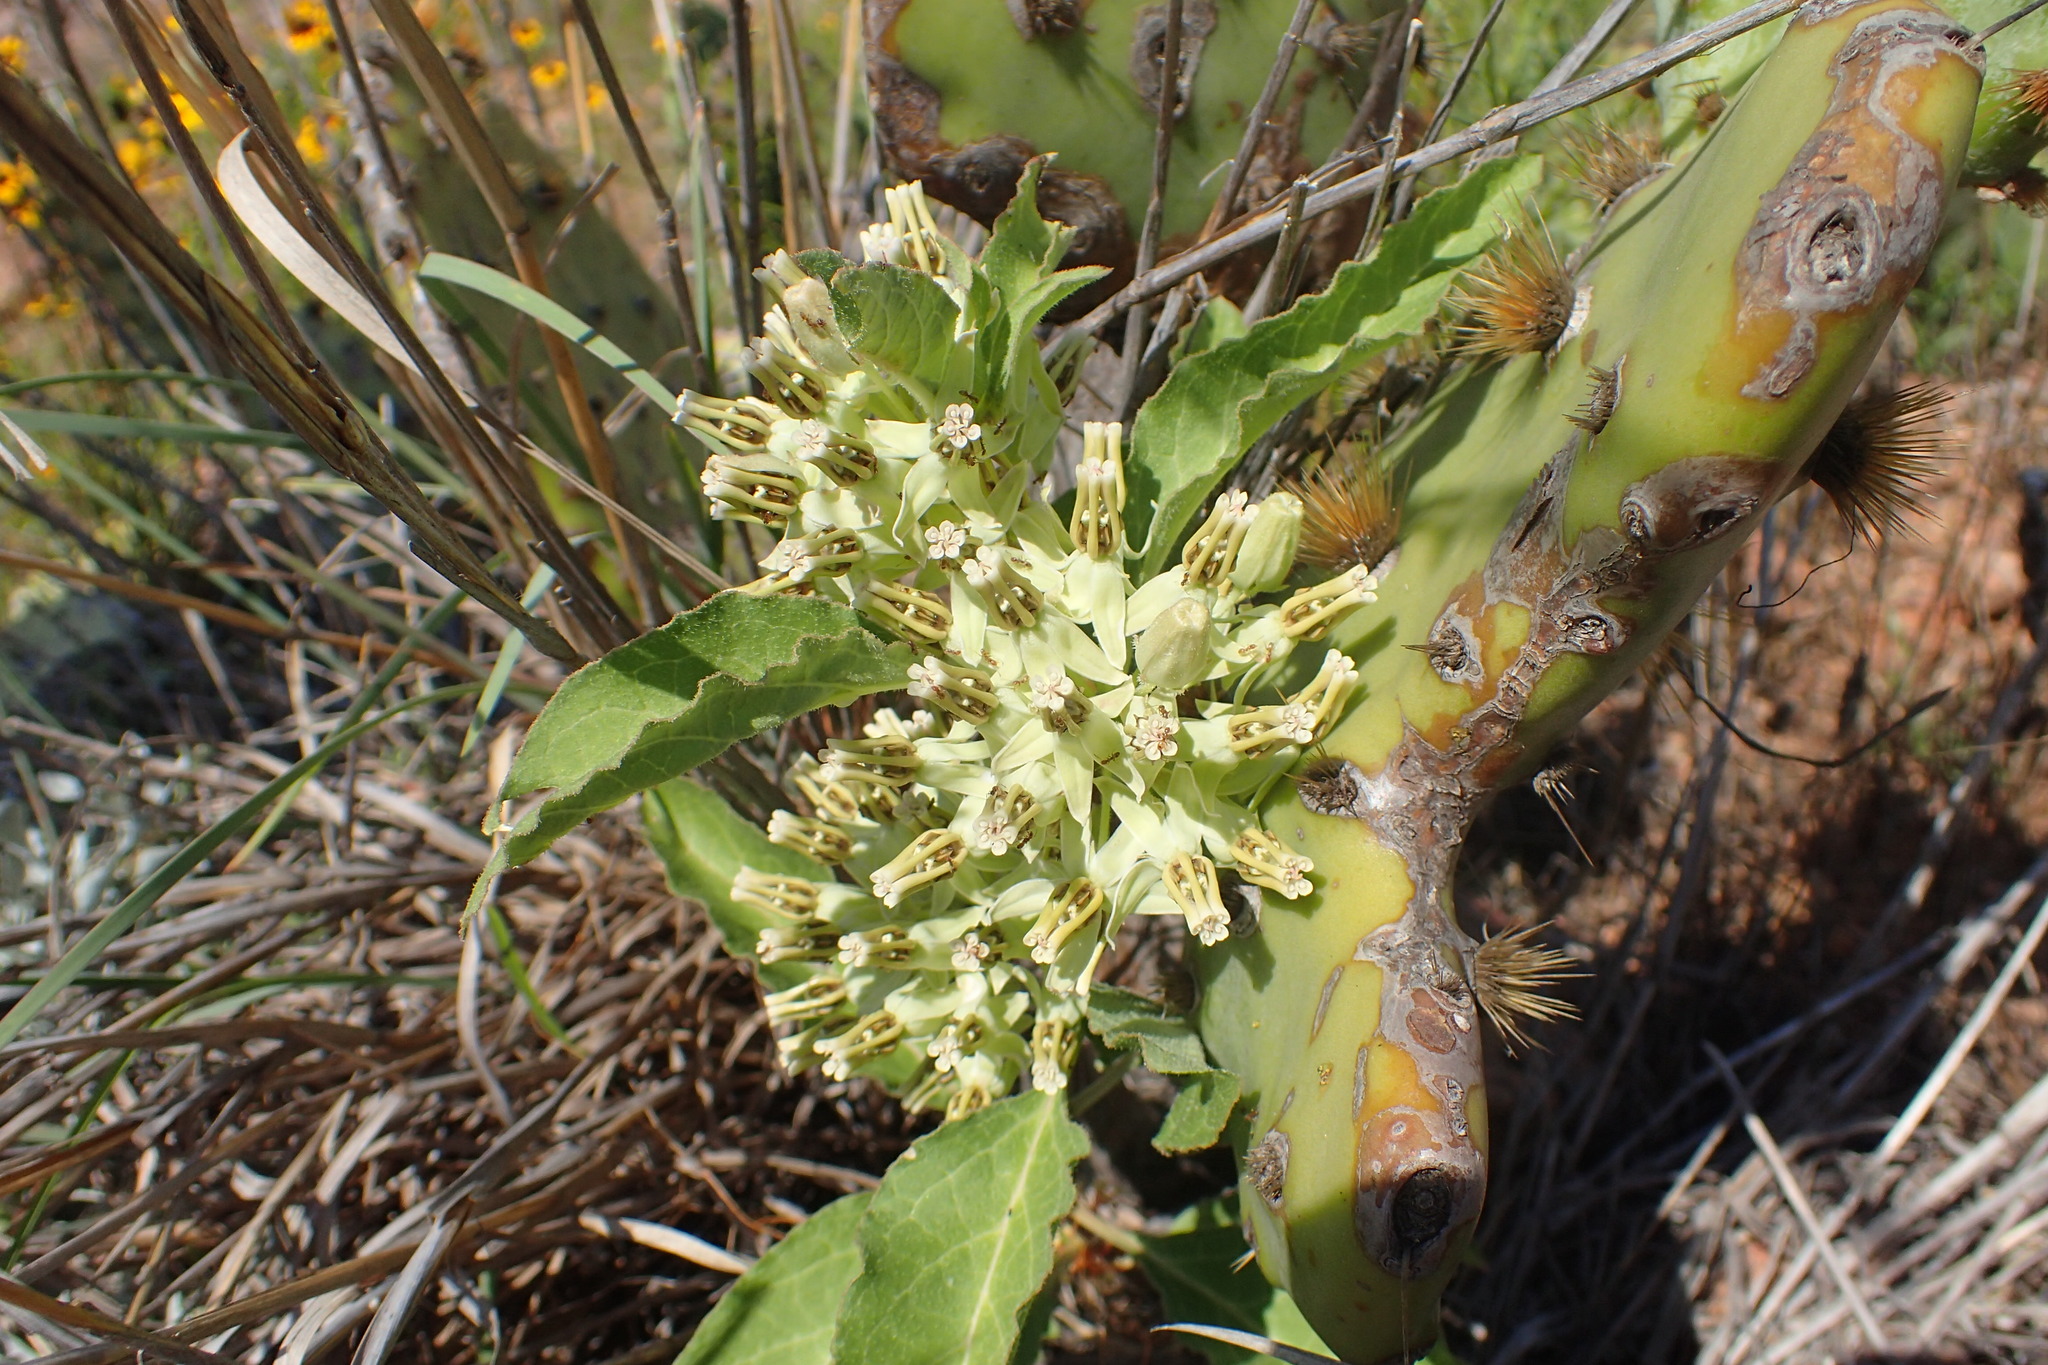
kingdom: Plantae
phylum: Tracheophyta
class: Magnoliopsida
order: Gentianales
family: Apocynaceae
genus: Asclepias
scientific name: Asclepias oenotheroides
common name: Zizotes milkweed
